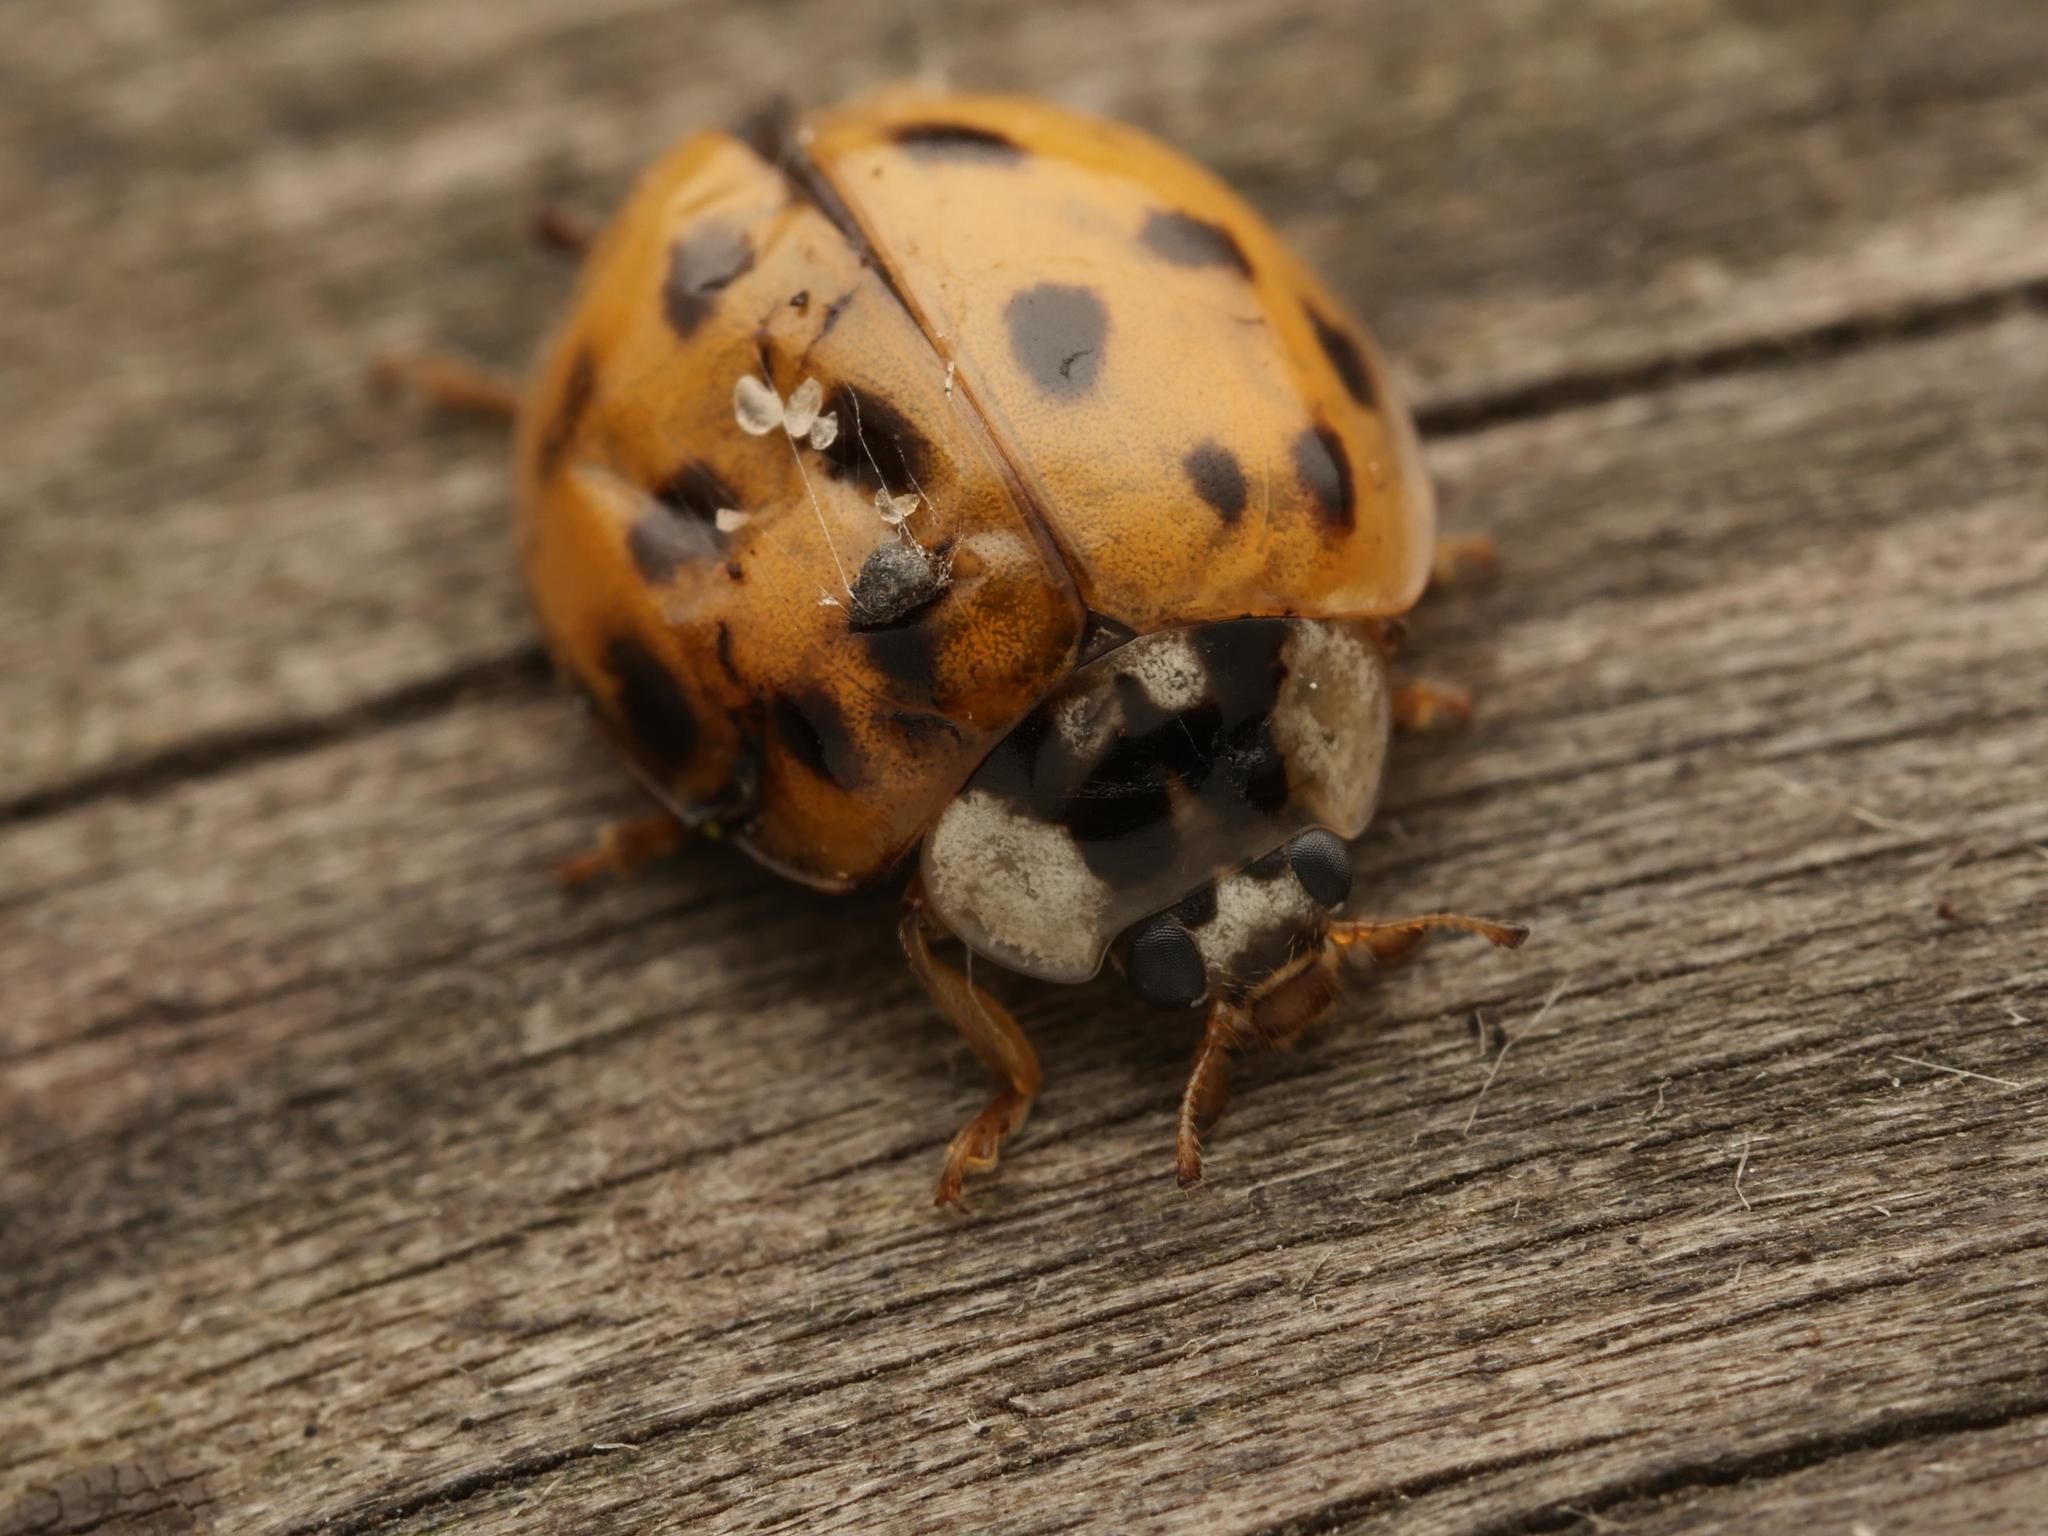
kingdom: Animalia
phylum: Arthropoda
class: Insecta
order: Coleoptera
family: Coccinellidae
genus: Harmonia
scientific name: Harmonia axyridis
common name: Harlequin ladybird
